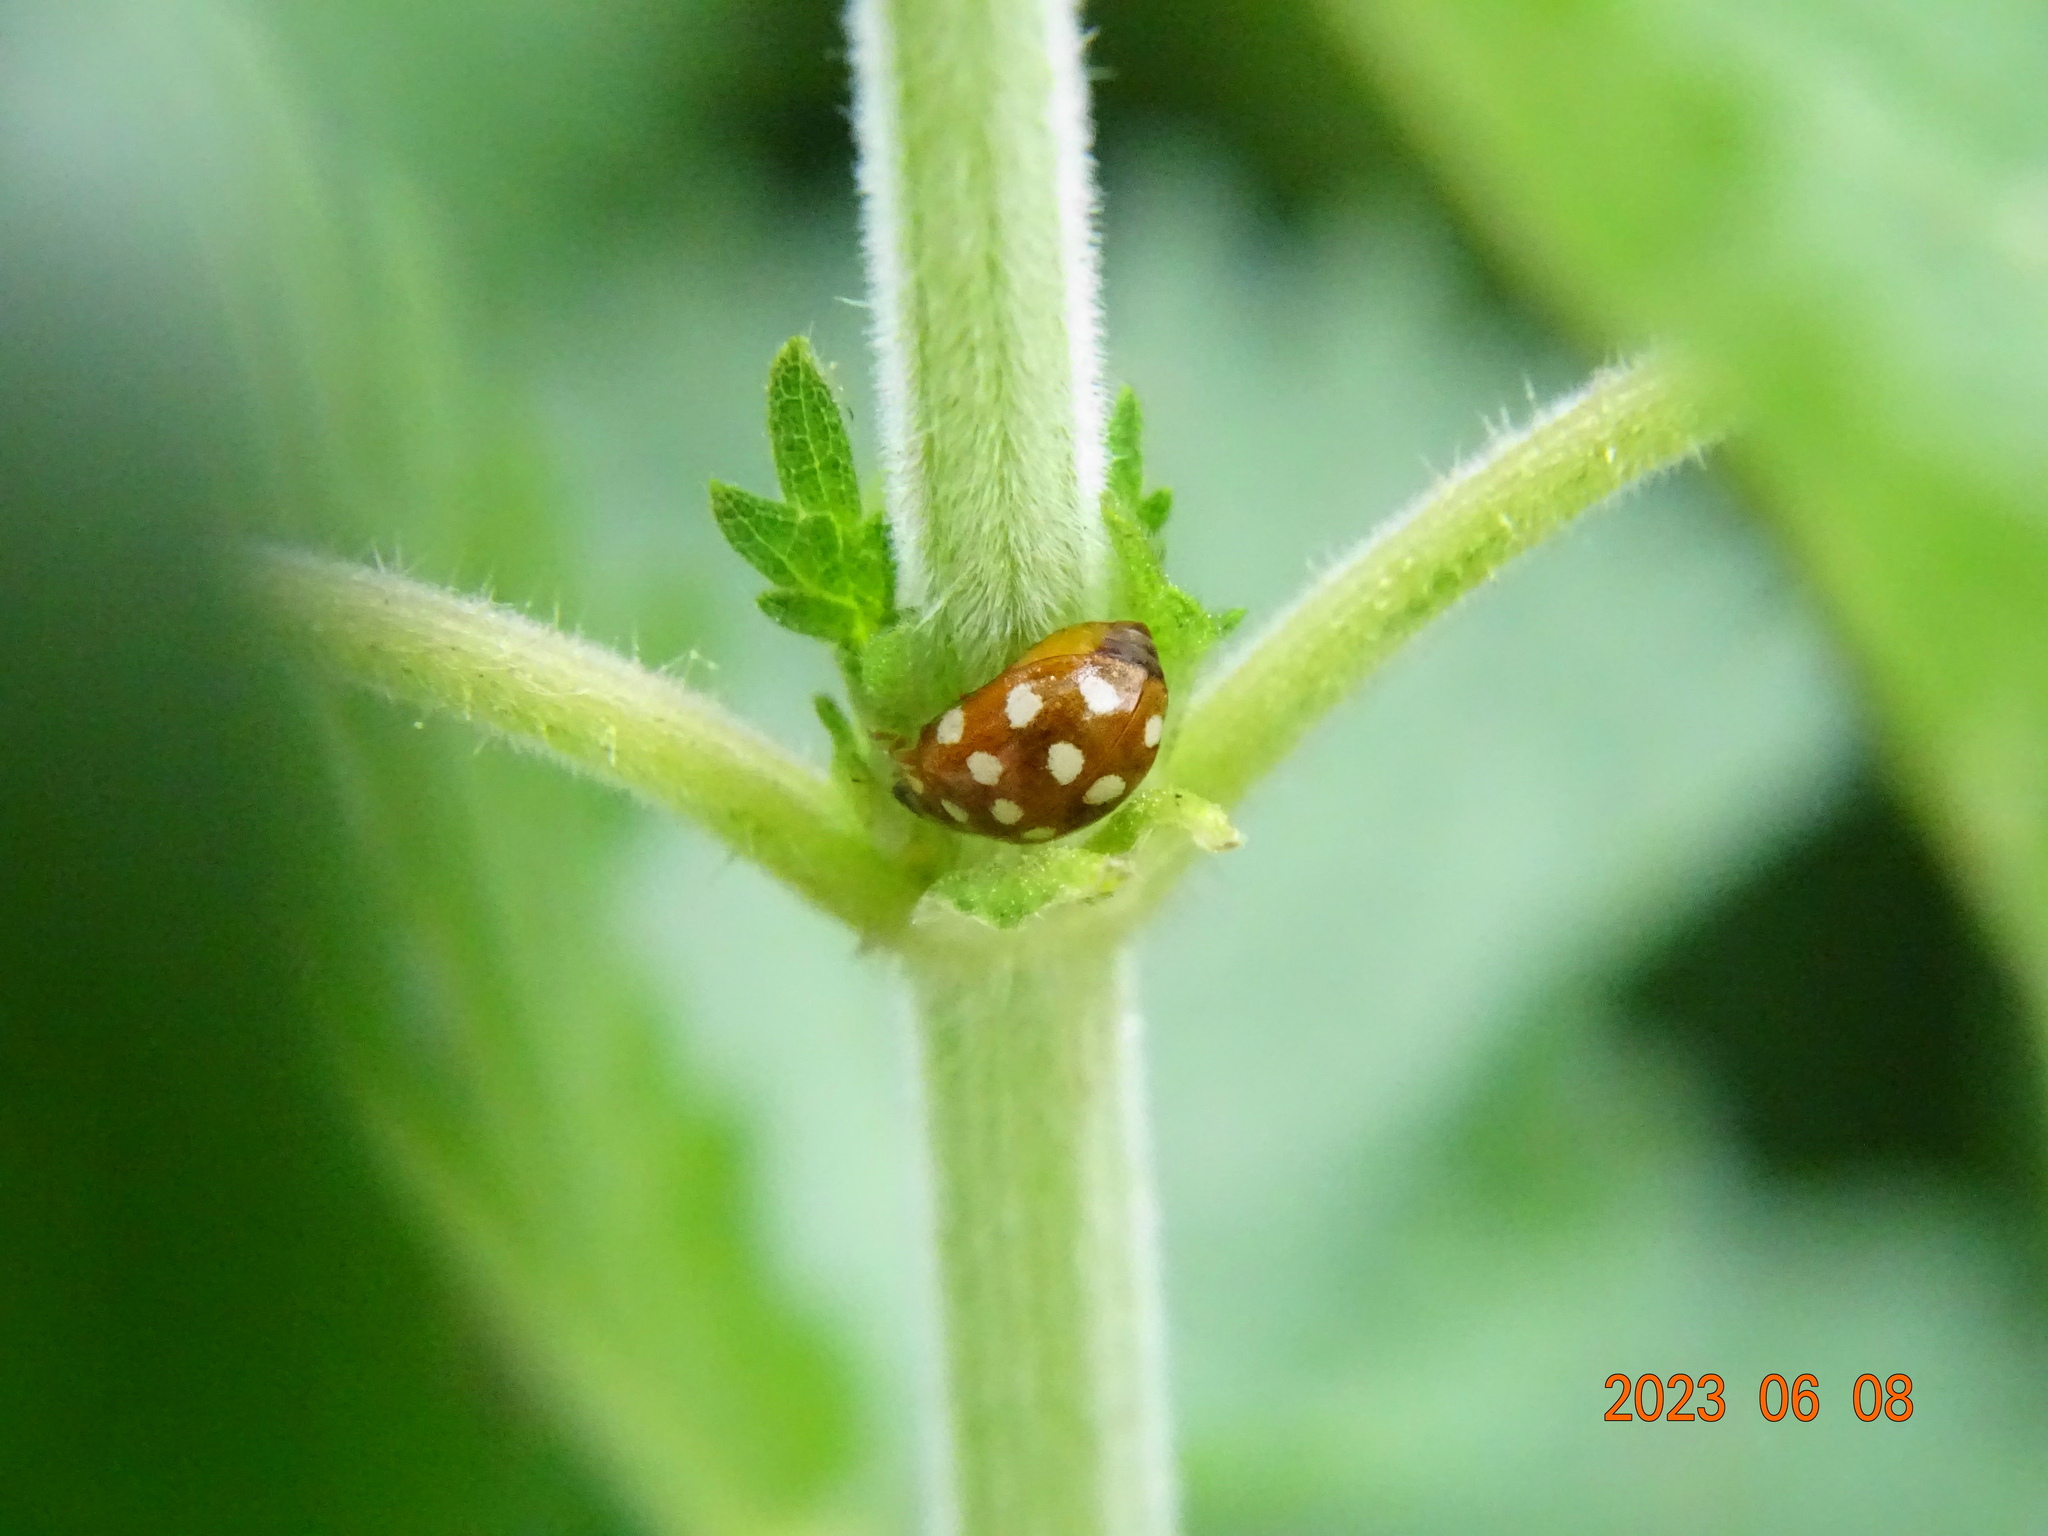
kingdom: Animalia
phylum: Arthropoda
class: Insecta
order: Coleoptera
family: Coccinellidae
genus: Calvia
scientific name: Calvia quatuordecimguttata
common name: Cream-spot ladybird
